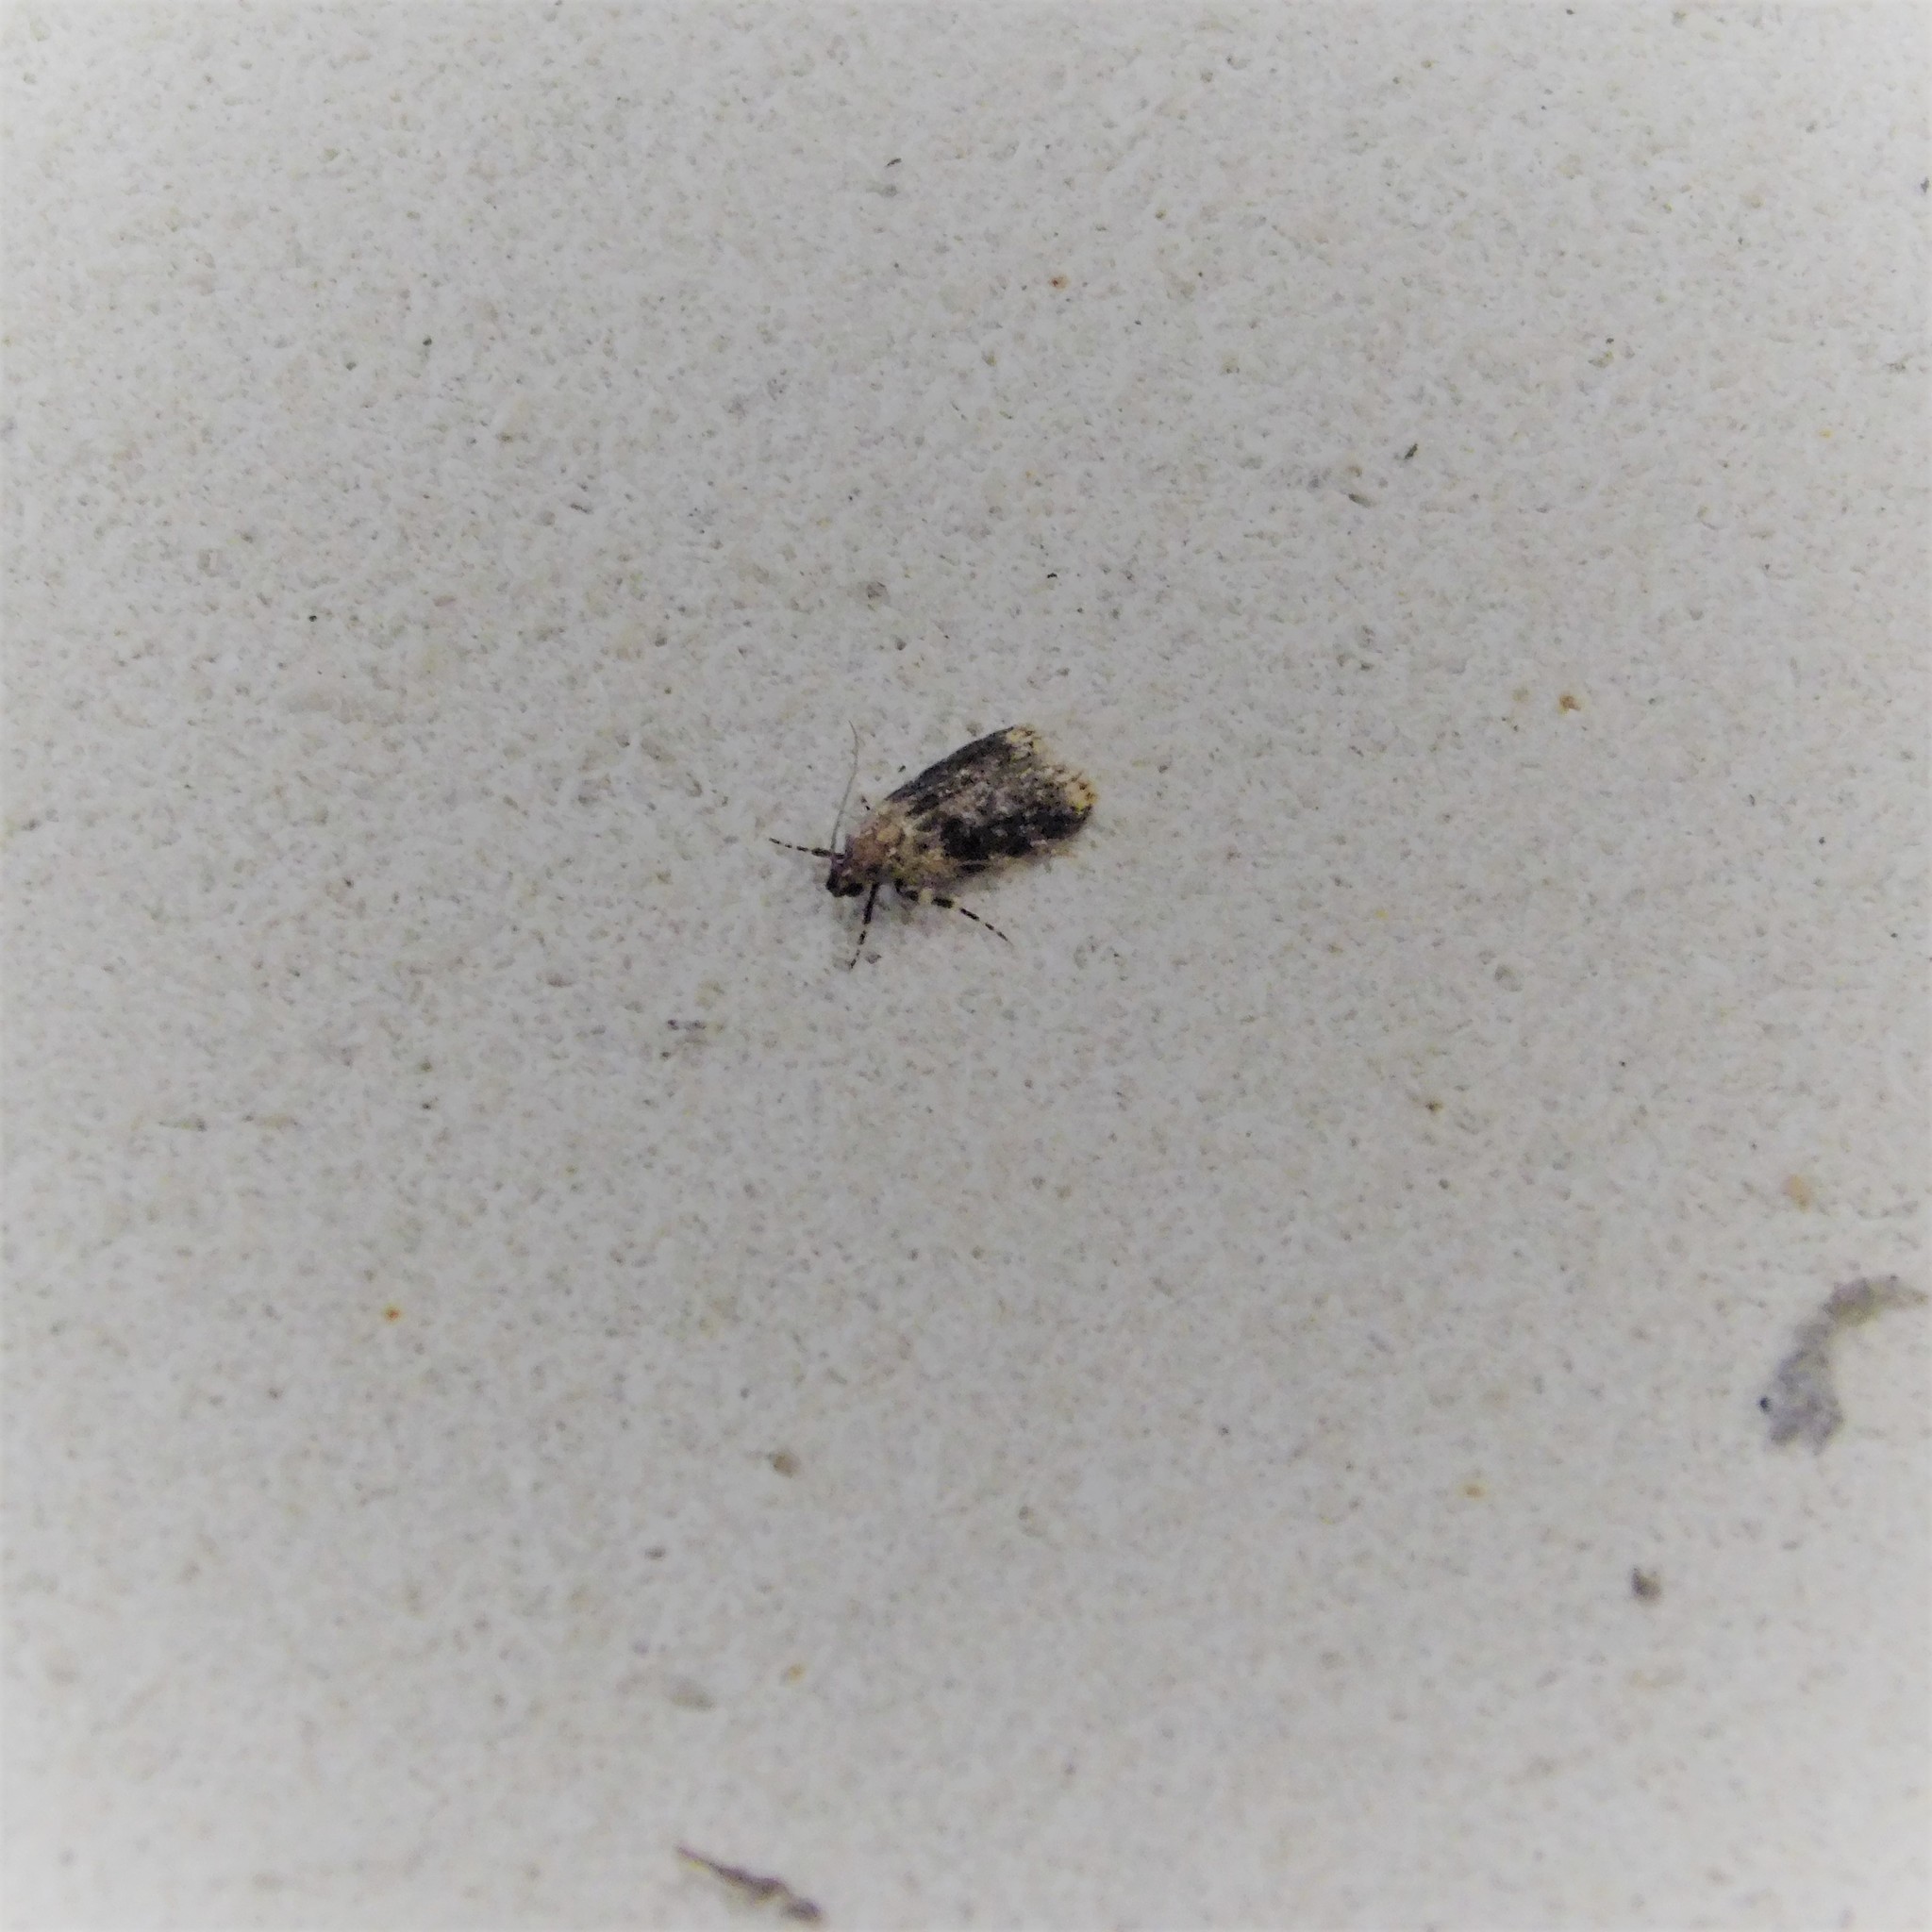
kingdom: Animalia
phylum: Arthropoda
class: Insecta
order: Lepidoptera
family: Oecophoridae
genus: Barea
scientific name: Barea codrella
